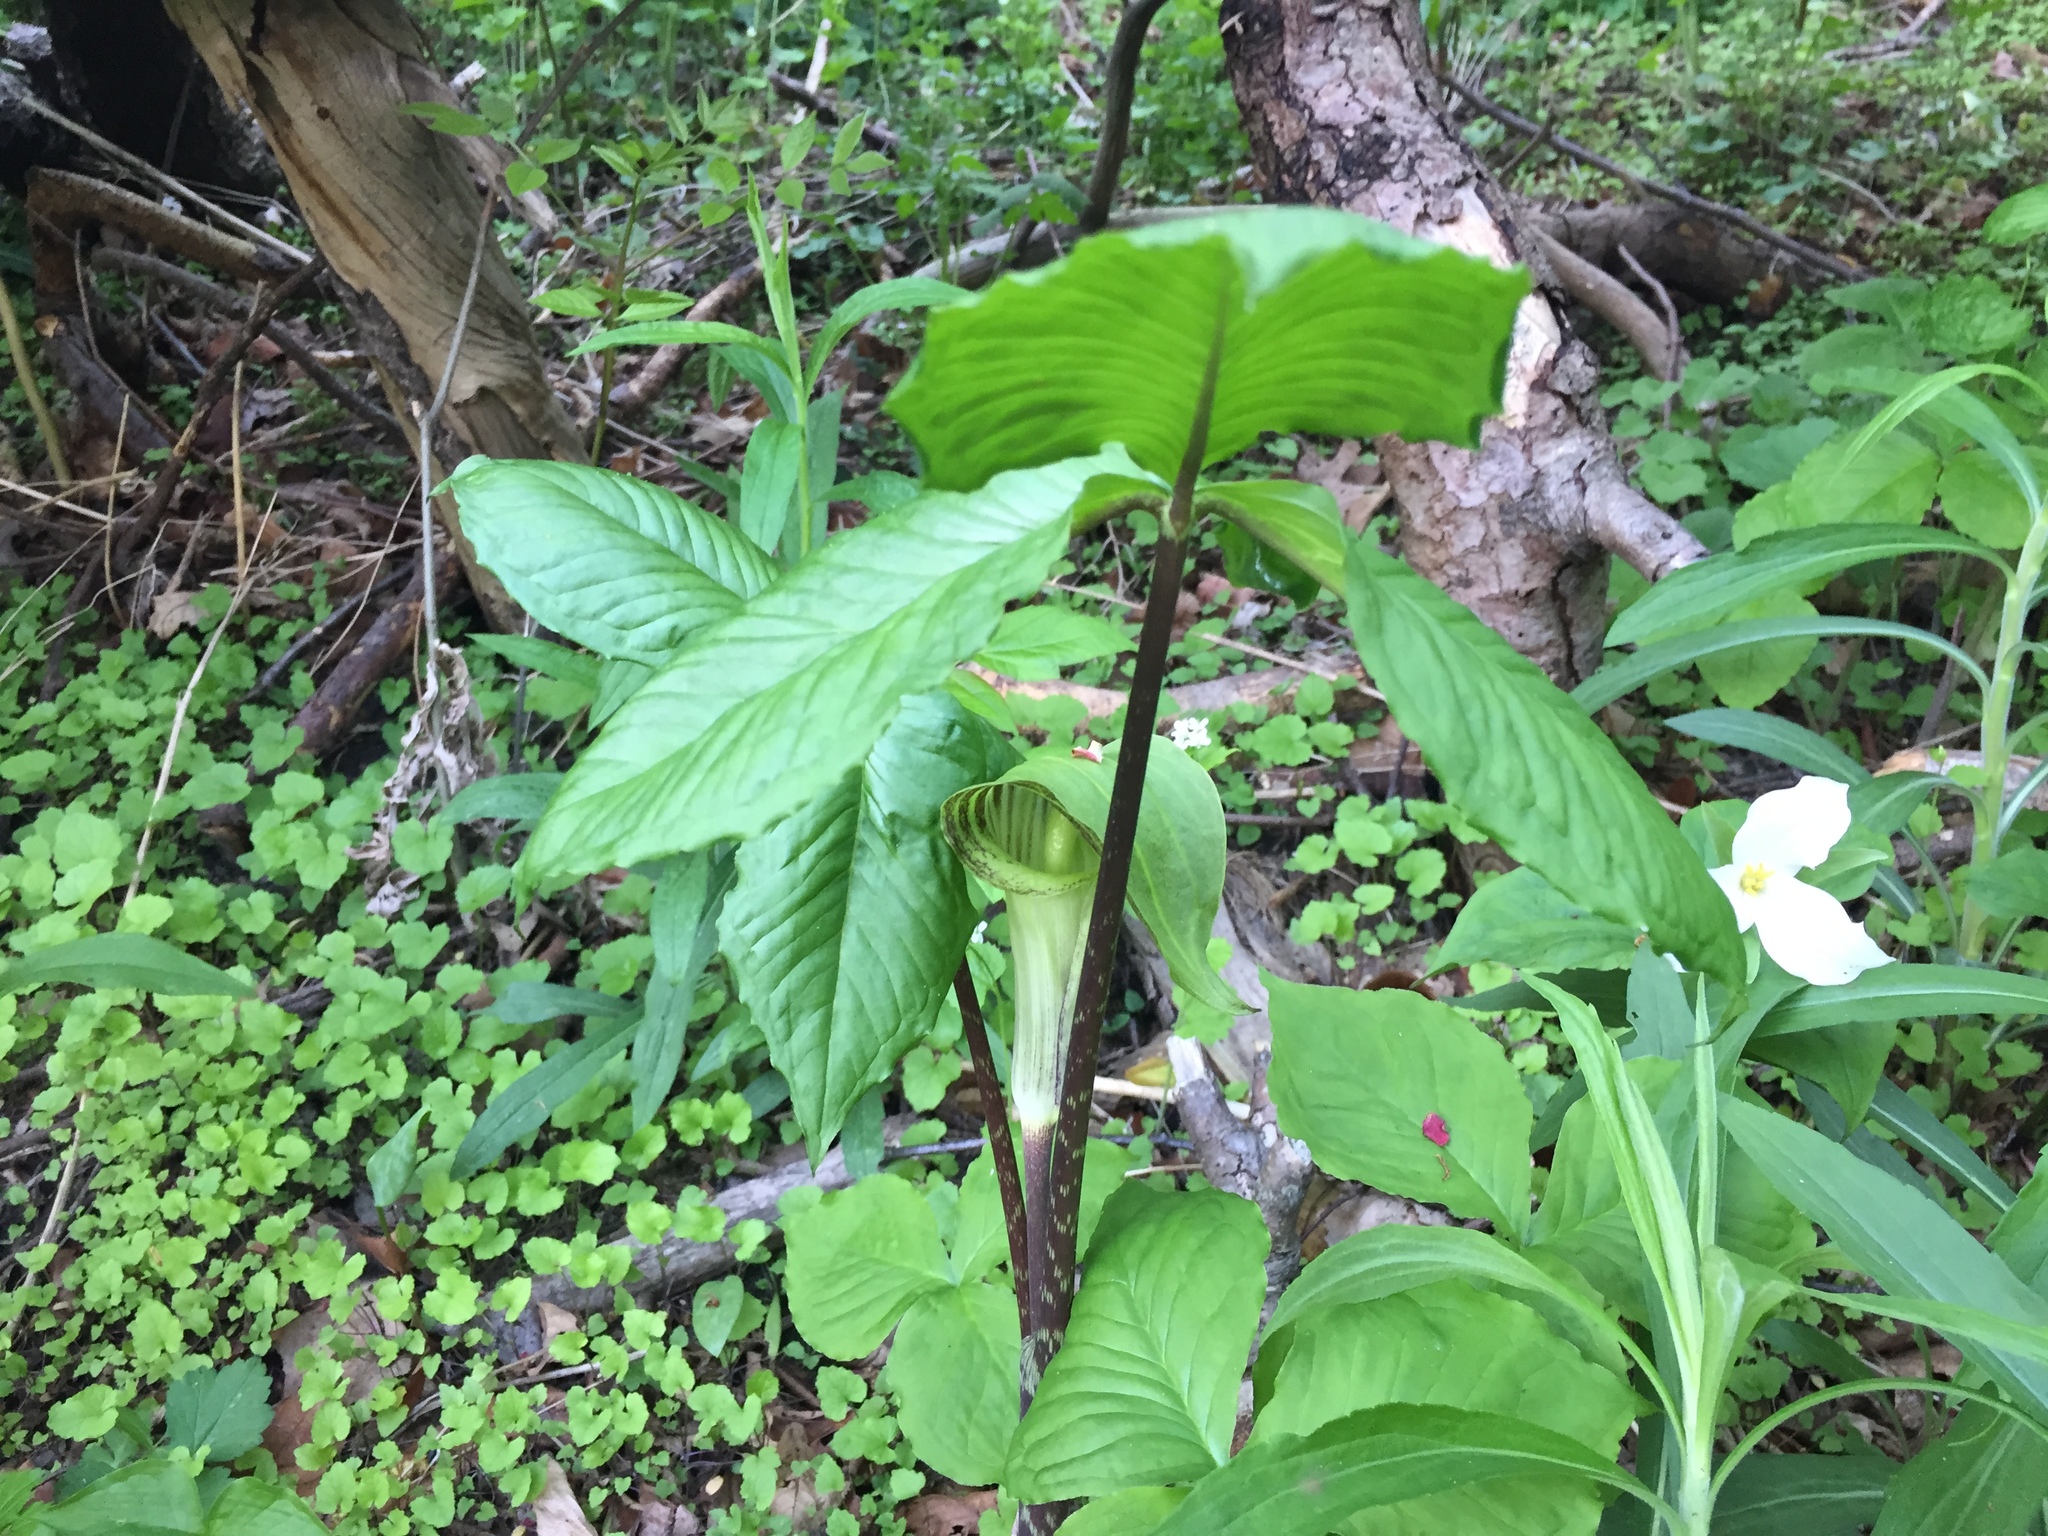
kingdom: Plantae
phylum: Tracheophyta
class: Liliopsida
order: Alismatales
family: Araceae
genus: Arisaema
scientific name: Arisaema triphyllum
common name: Jack-in-the-pulpit
